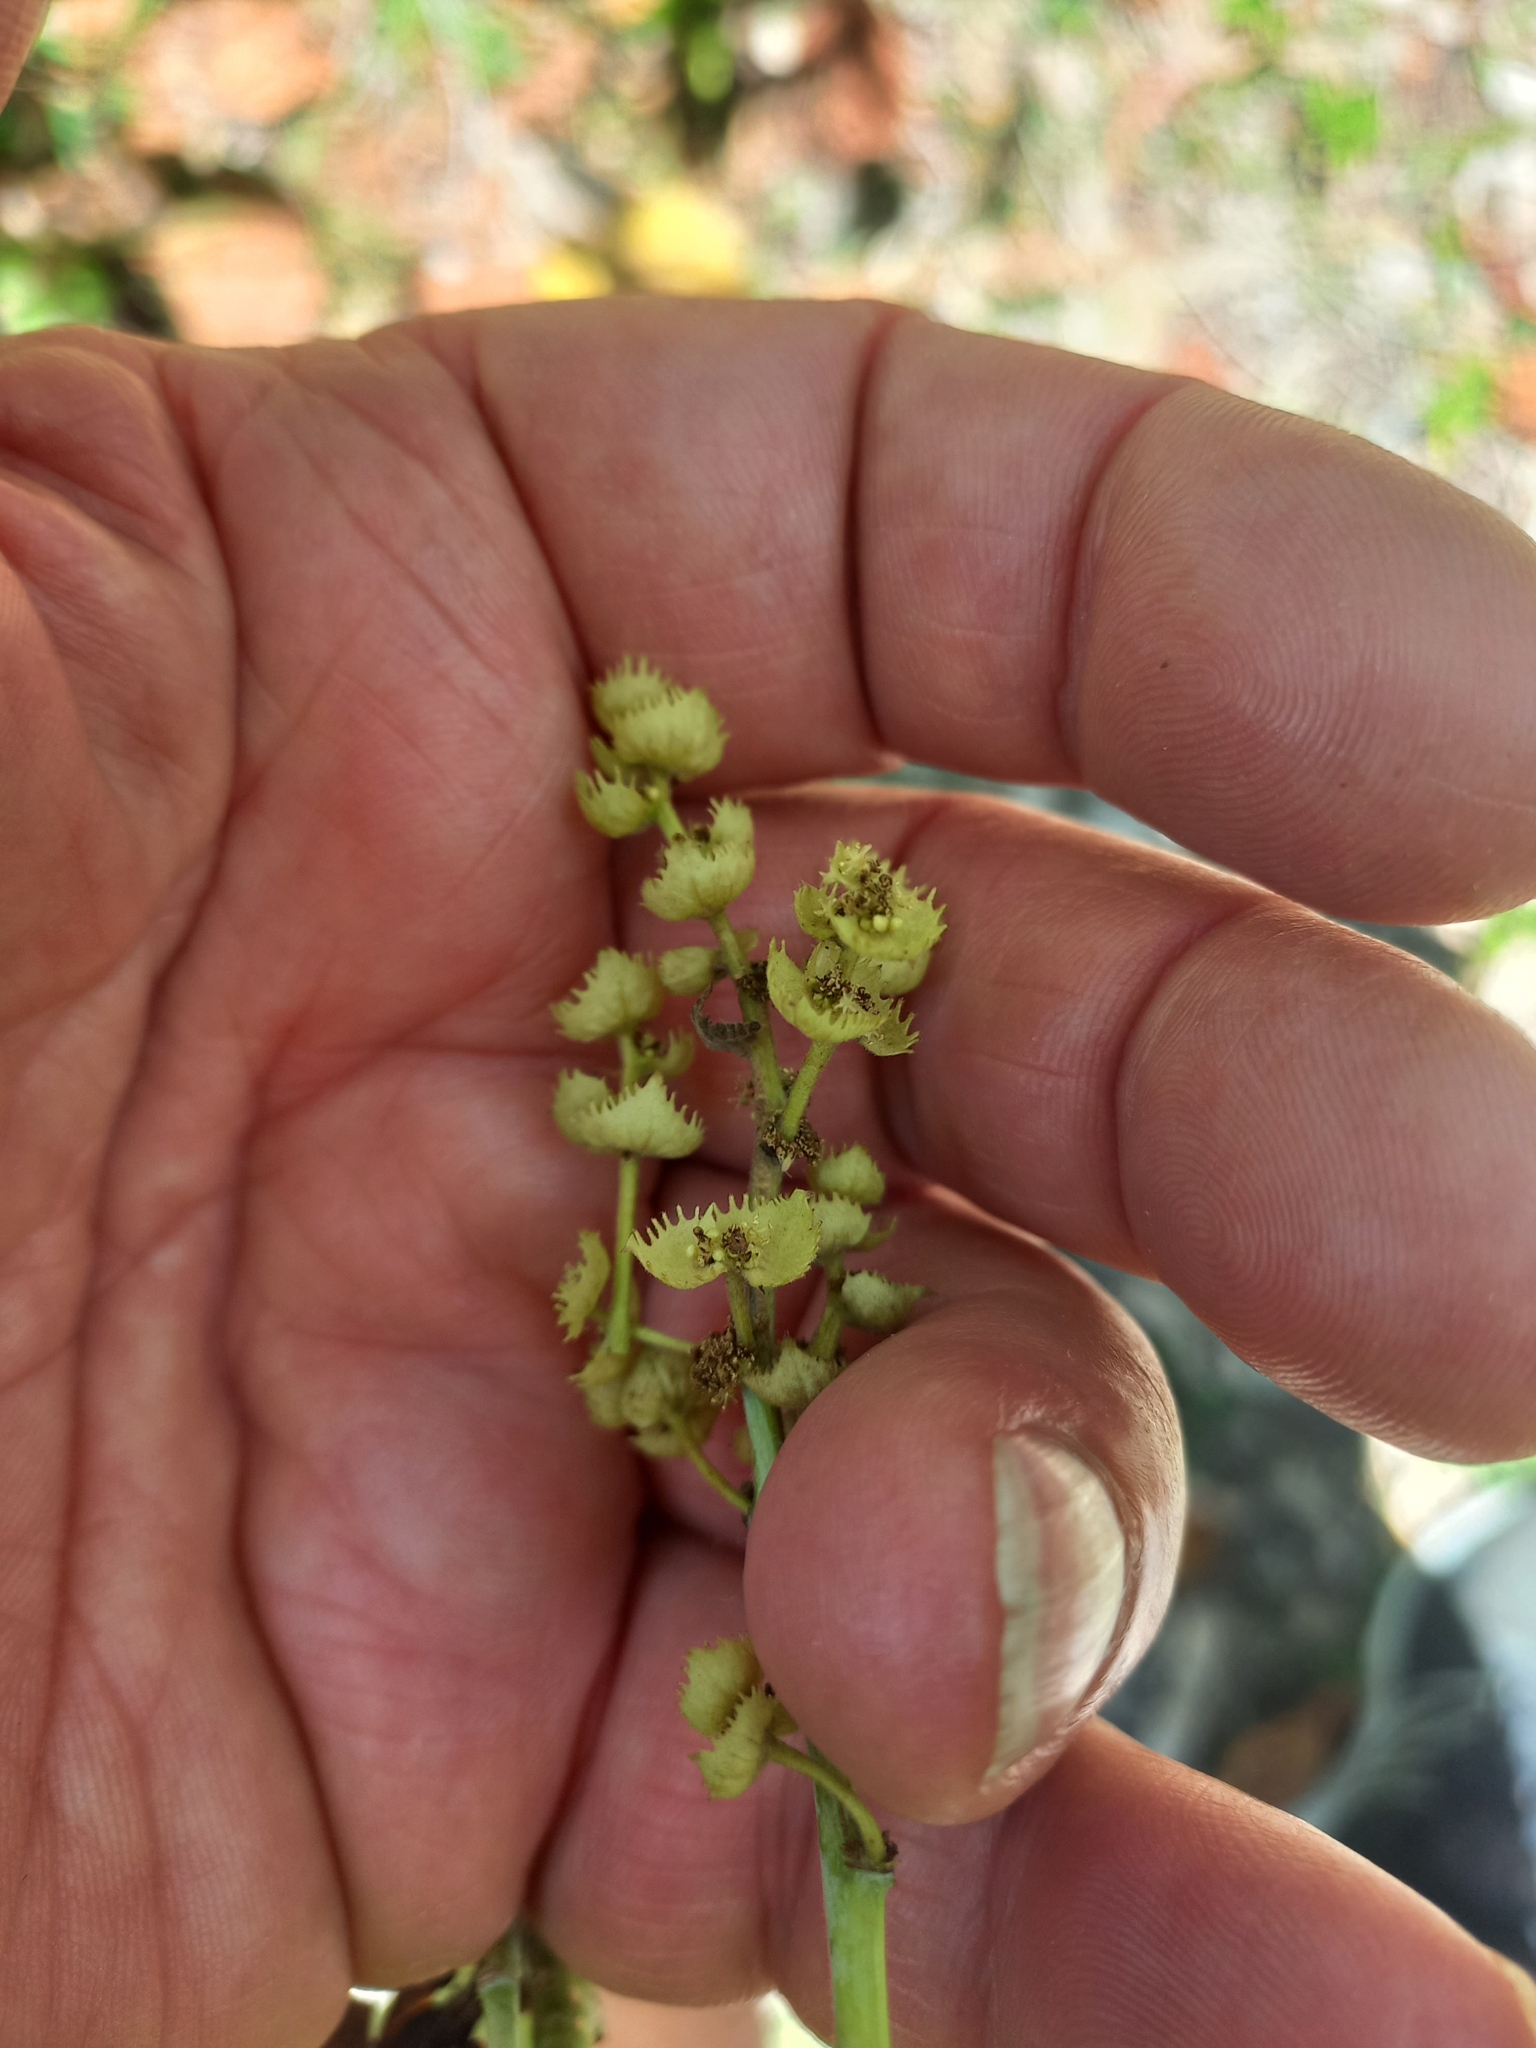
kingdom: Plantae
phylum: Tracheophyta
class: Magnoliopsida
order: Malpighiales
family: Euphorbiaceae
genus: Macaranga
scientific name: Macaranga tanarius
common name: Parasol leaf tree
